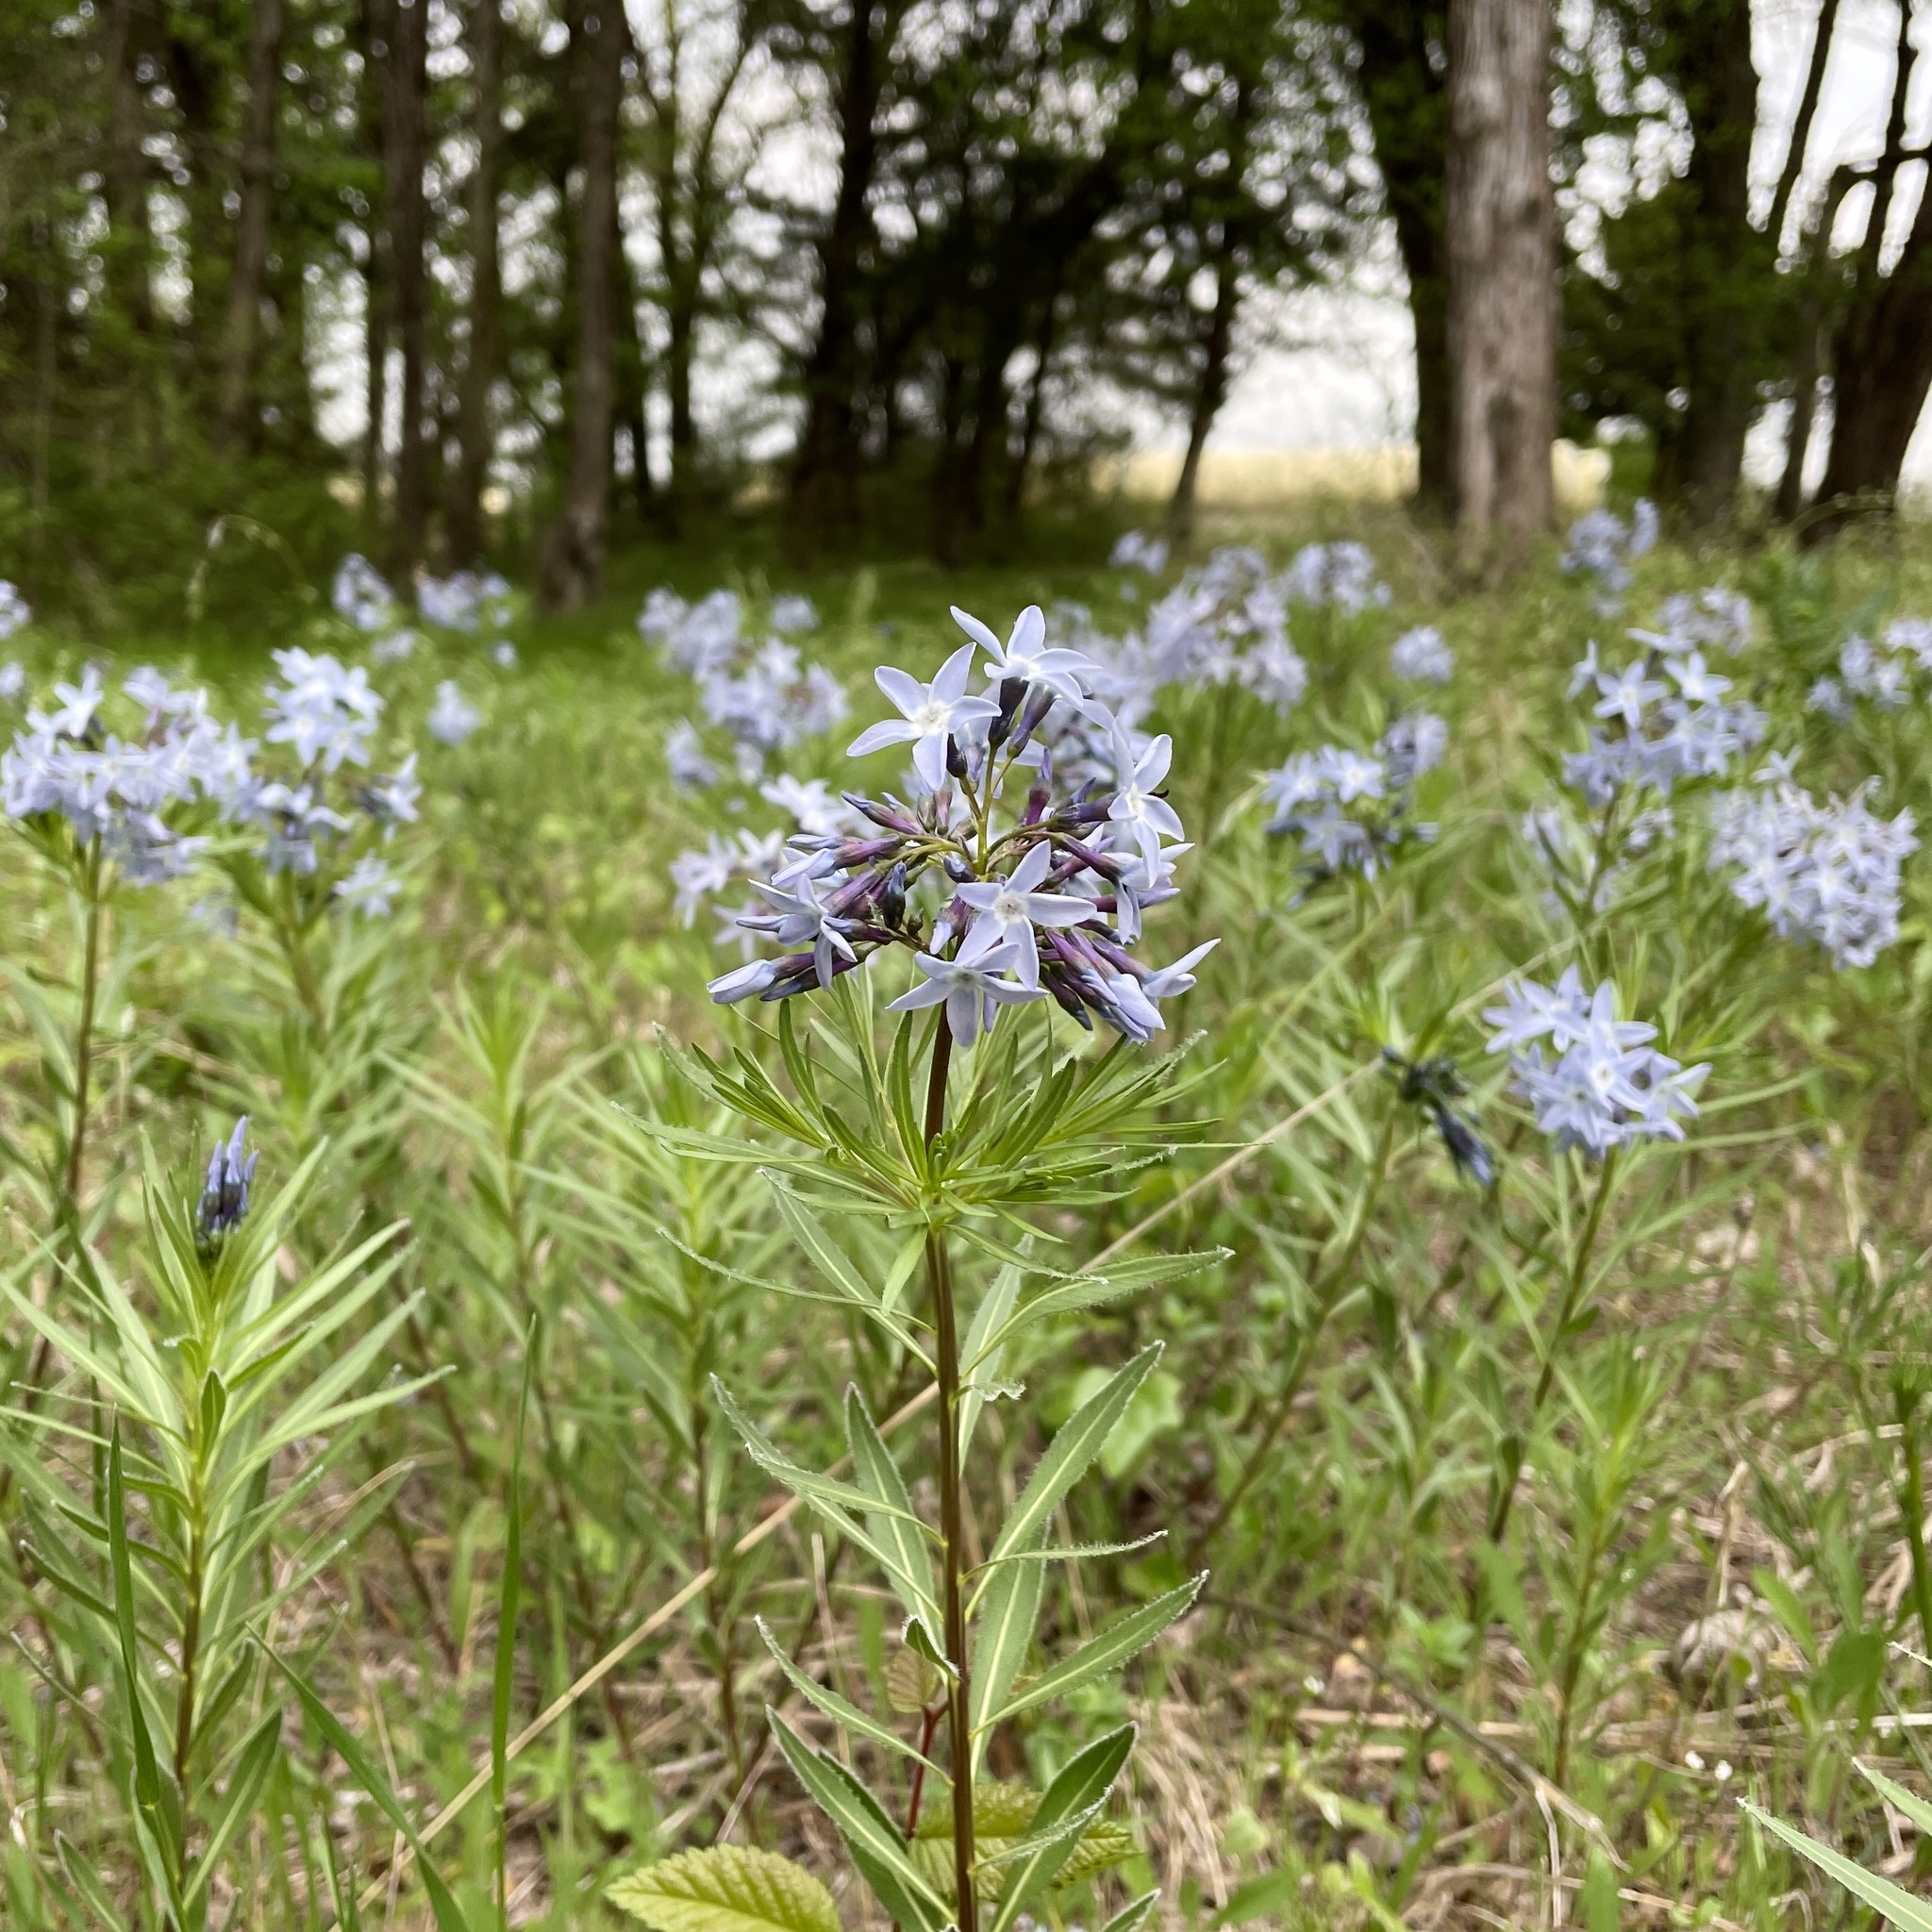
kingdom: Plantae
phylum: Tracheophyta
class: Magnoliopsida
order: Gentianales
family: Apocynaceae
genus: Amsonia
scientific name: Amsonia ciliata
